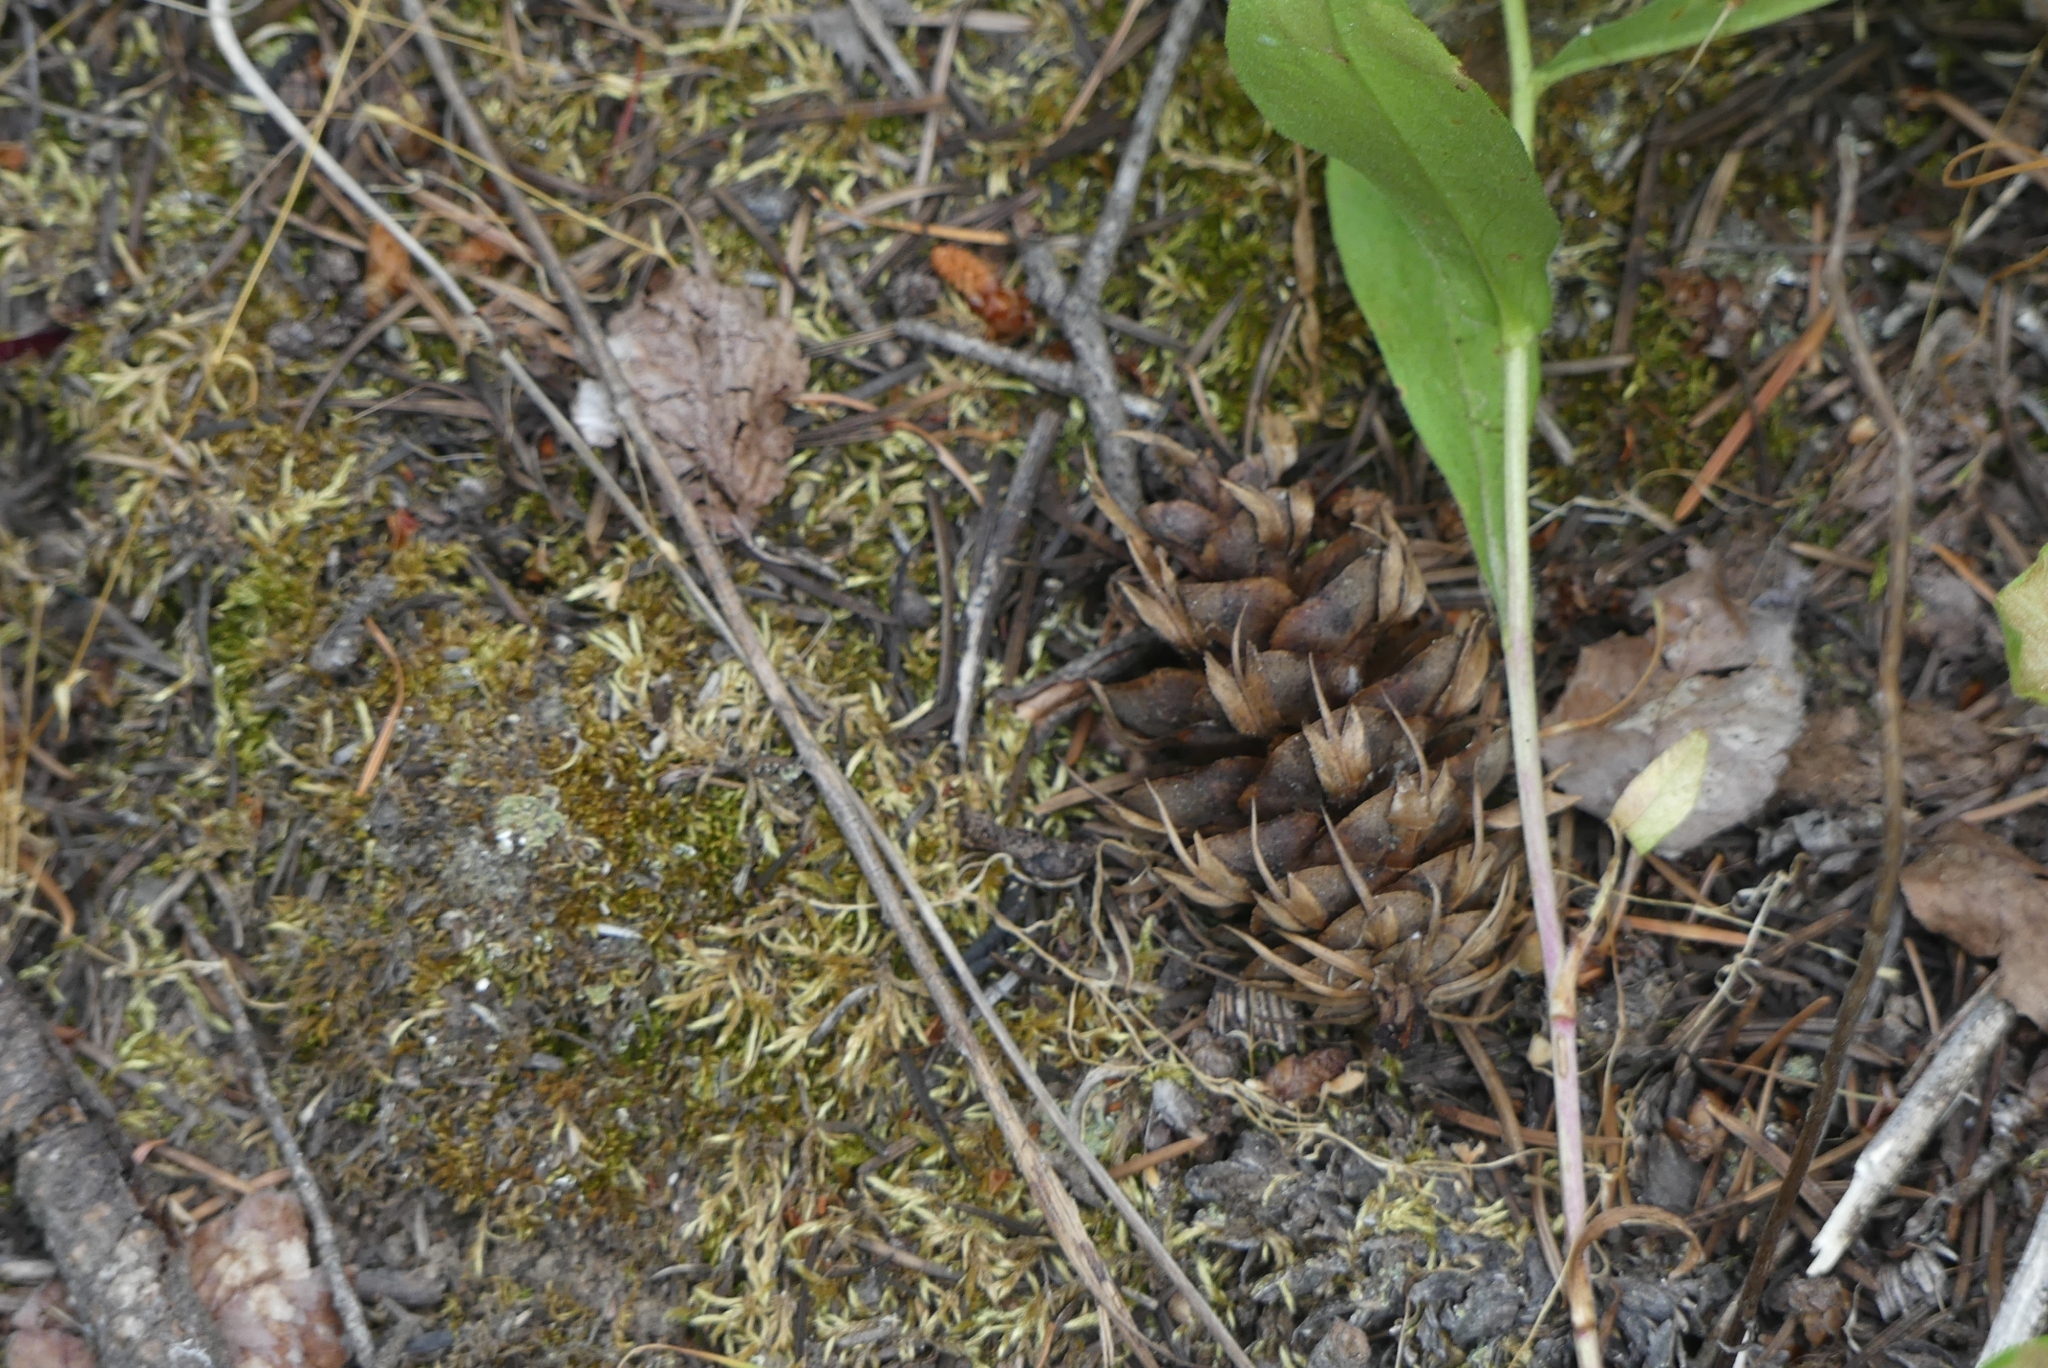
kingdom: Plantae
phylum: Tracheophyta
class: Pinopsida
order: Pinales
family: Pinaceae
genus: Pseudotsuga
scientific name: Pseudotsuga menziesii
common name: Douglas fir
